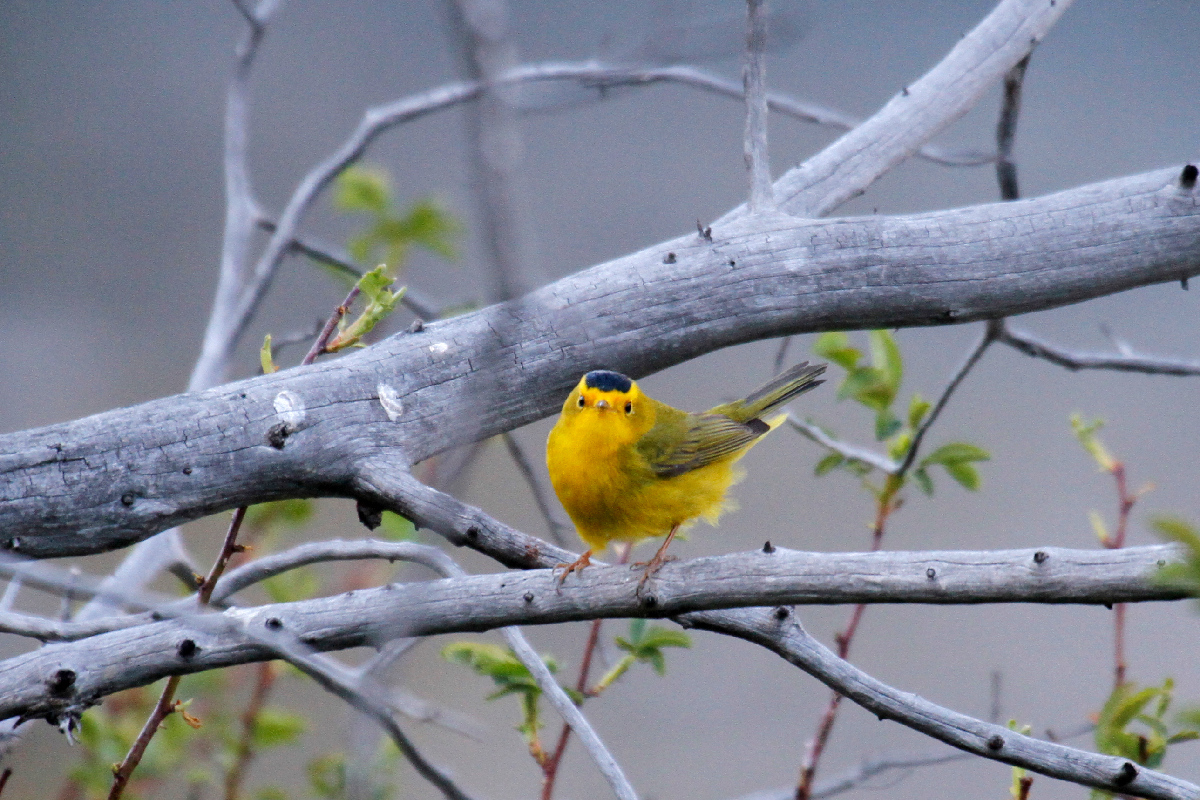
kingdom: Animalia
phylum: Chordata
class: Aves
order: Passeriformes
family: Parulidae
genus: Cardellina
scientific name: Cardellina pusilla
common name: Wilson's warbler
